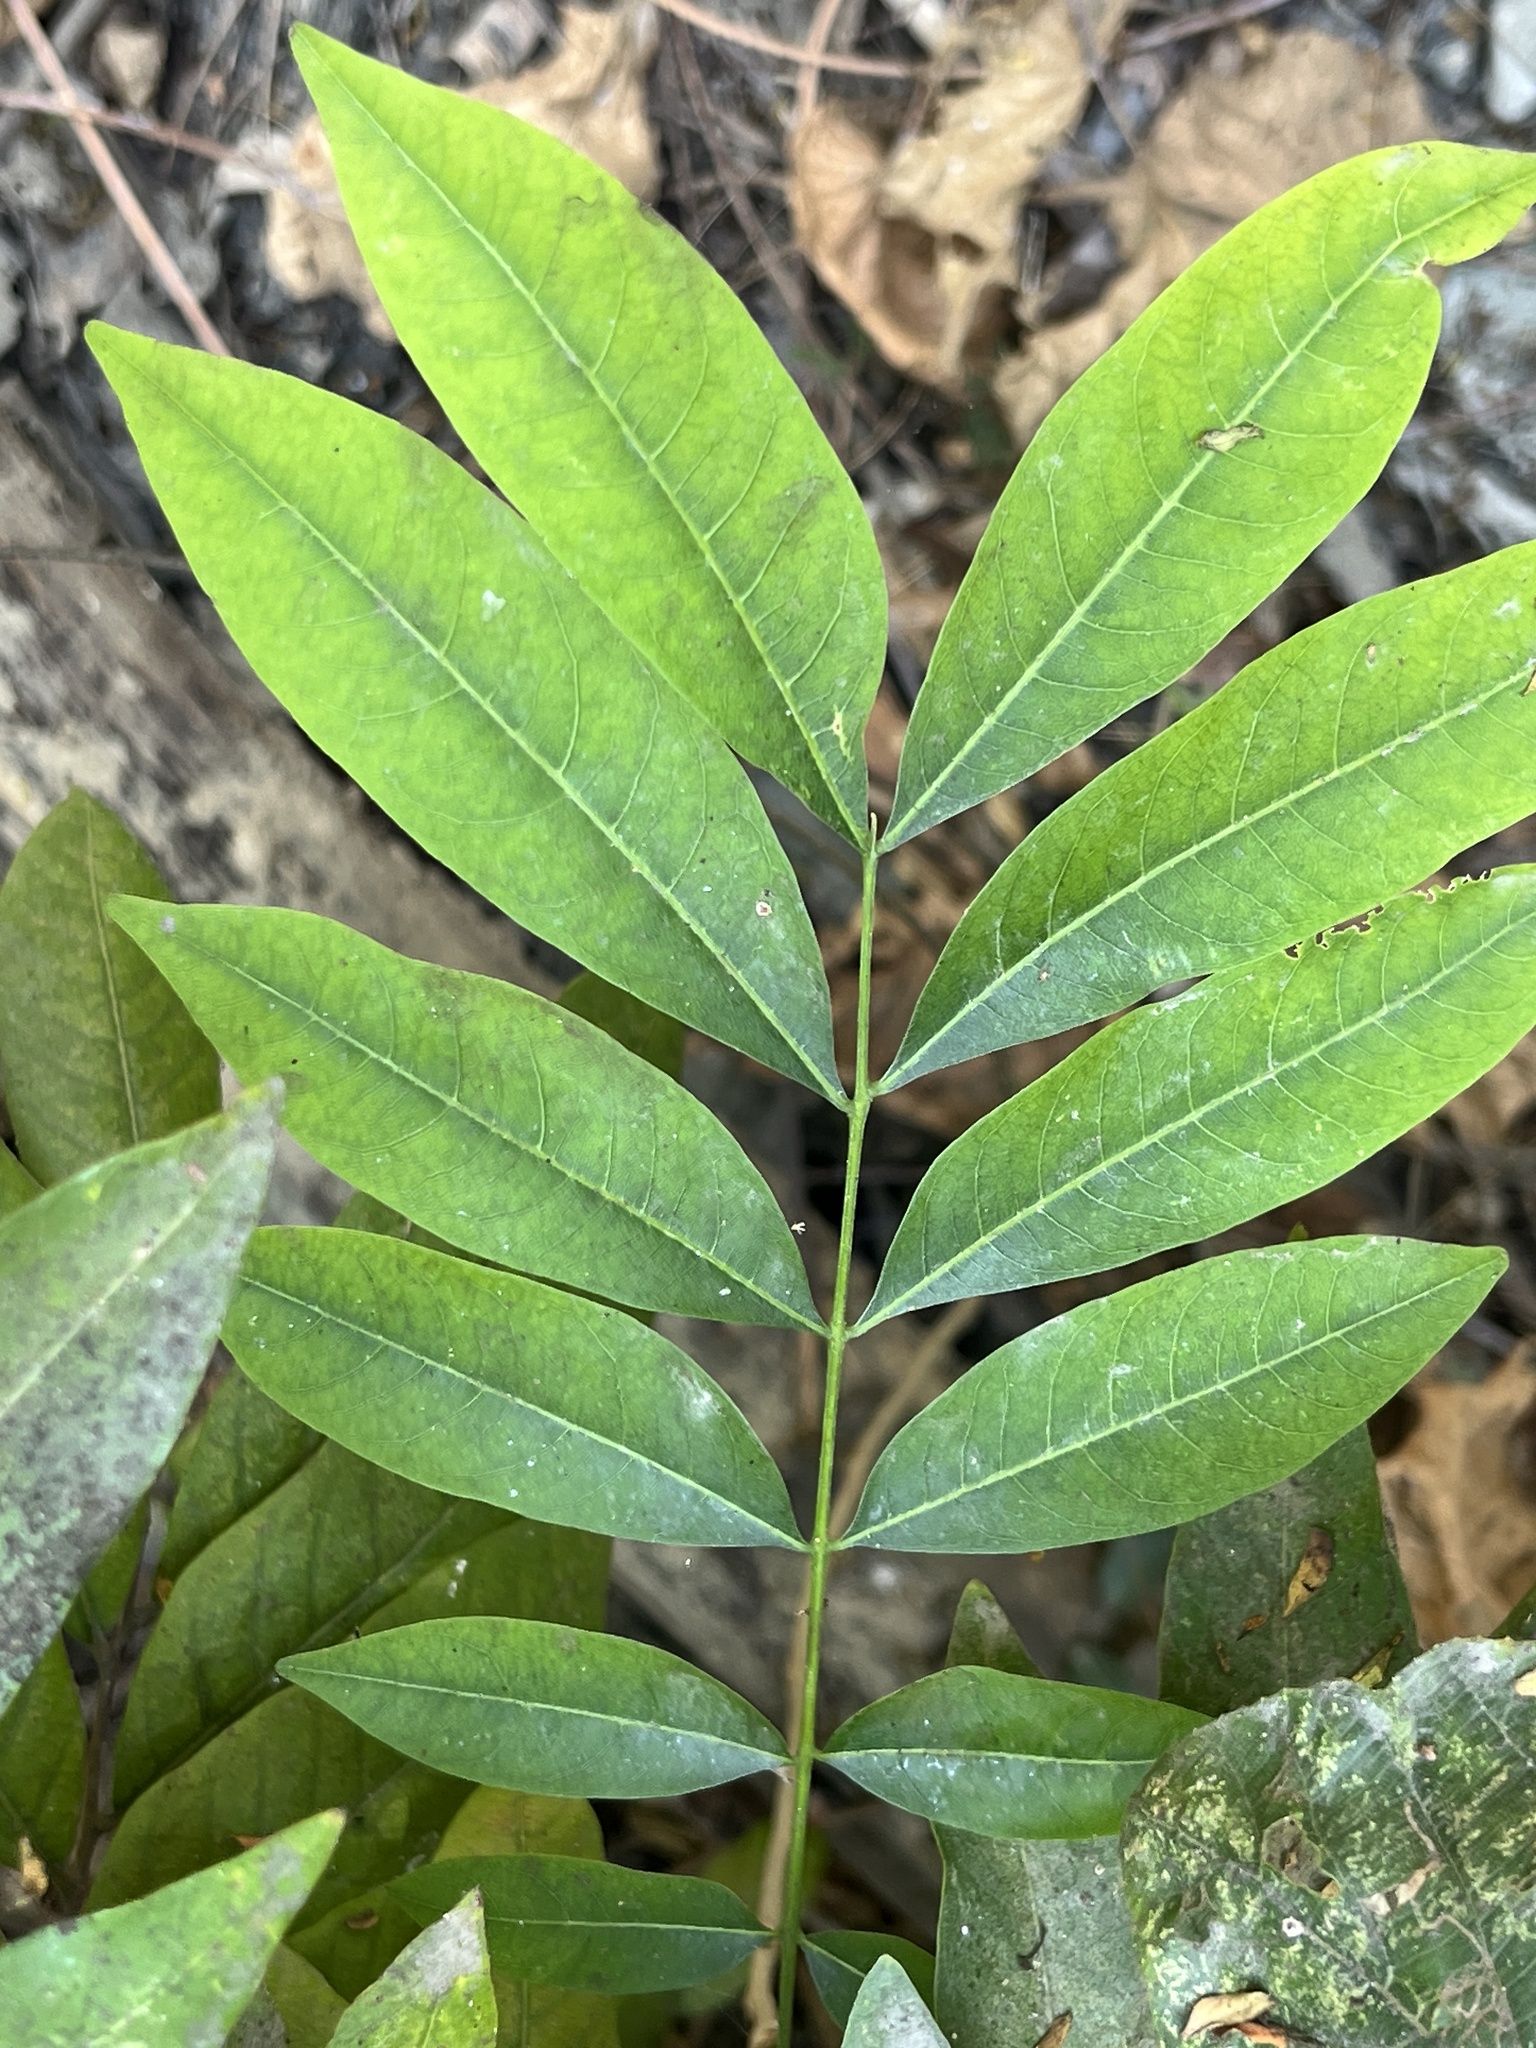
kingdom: Plantae
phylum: Tracheophyta
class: Magnoliopsida
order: Sapindales
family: Sapindaceae
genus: Sapindus
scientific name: Sapindus mukorossi
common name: Chinese soapberry
